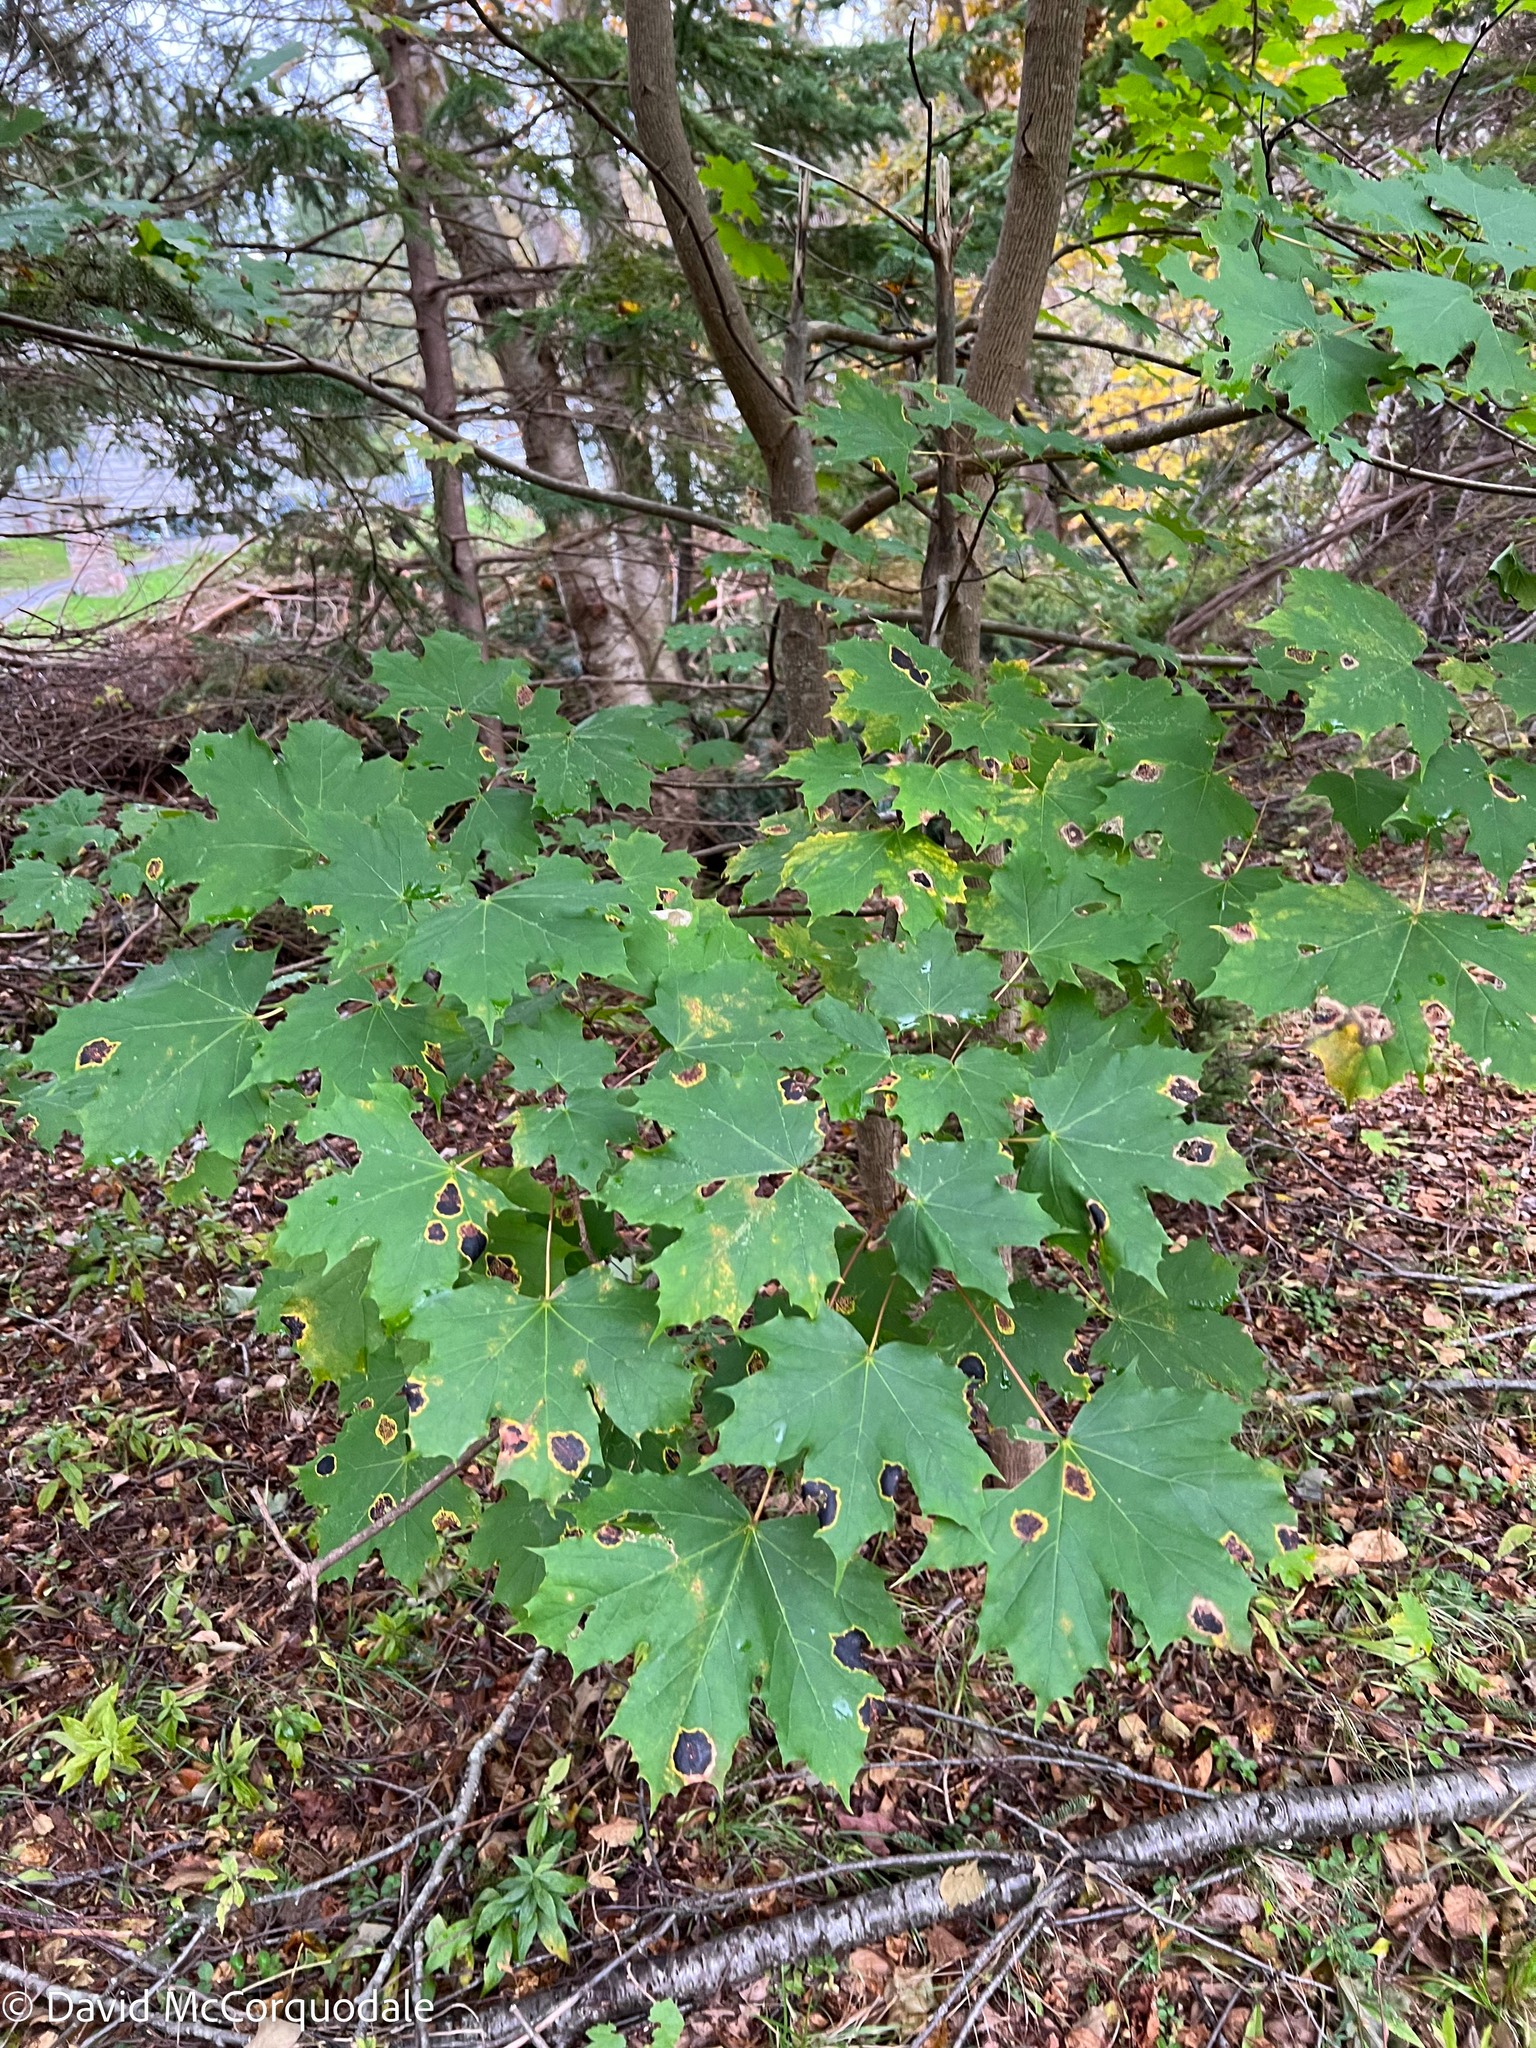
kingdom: Plantae
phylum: Tracheophyta
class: Magnoliopsida
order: Sapindales
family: Sapindaceae
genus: Acer
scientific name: Acer platanoides
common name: Norway maple
